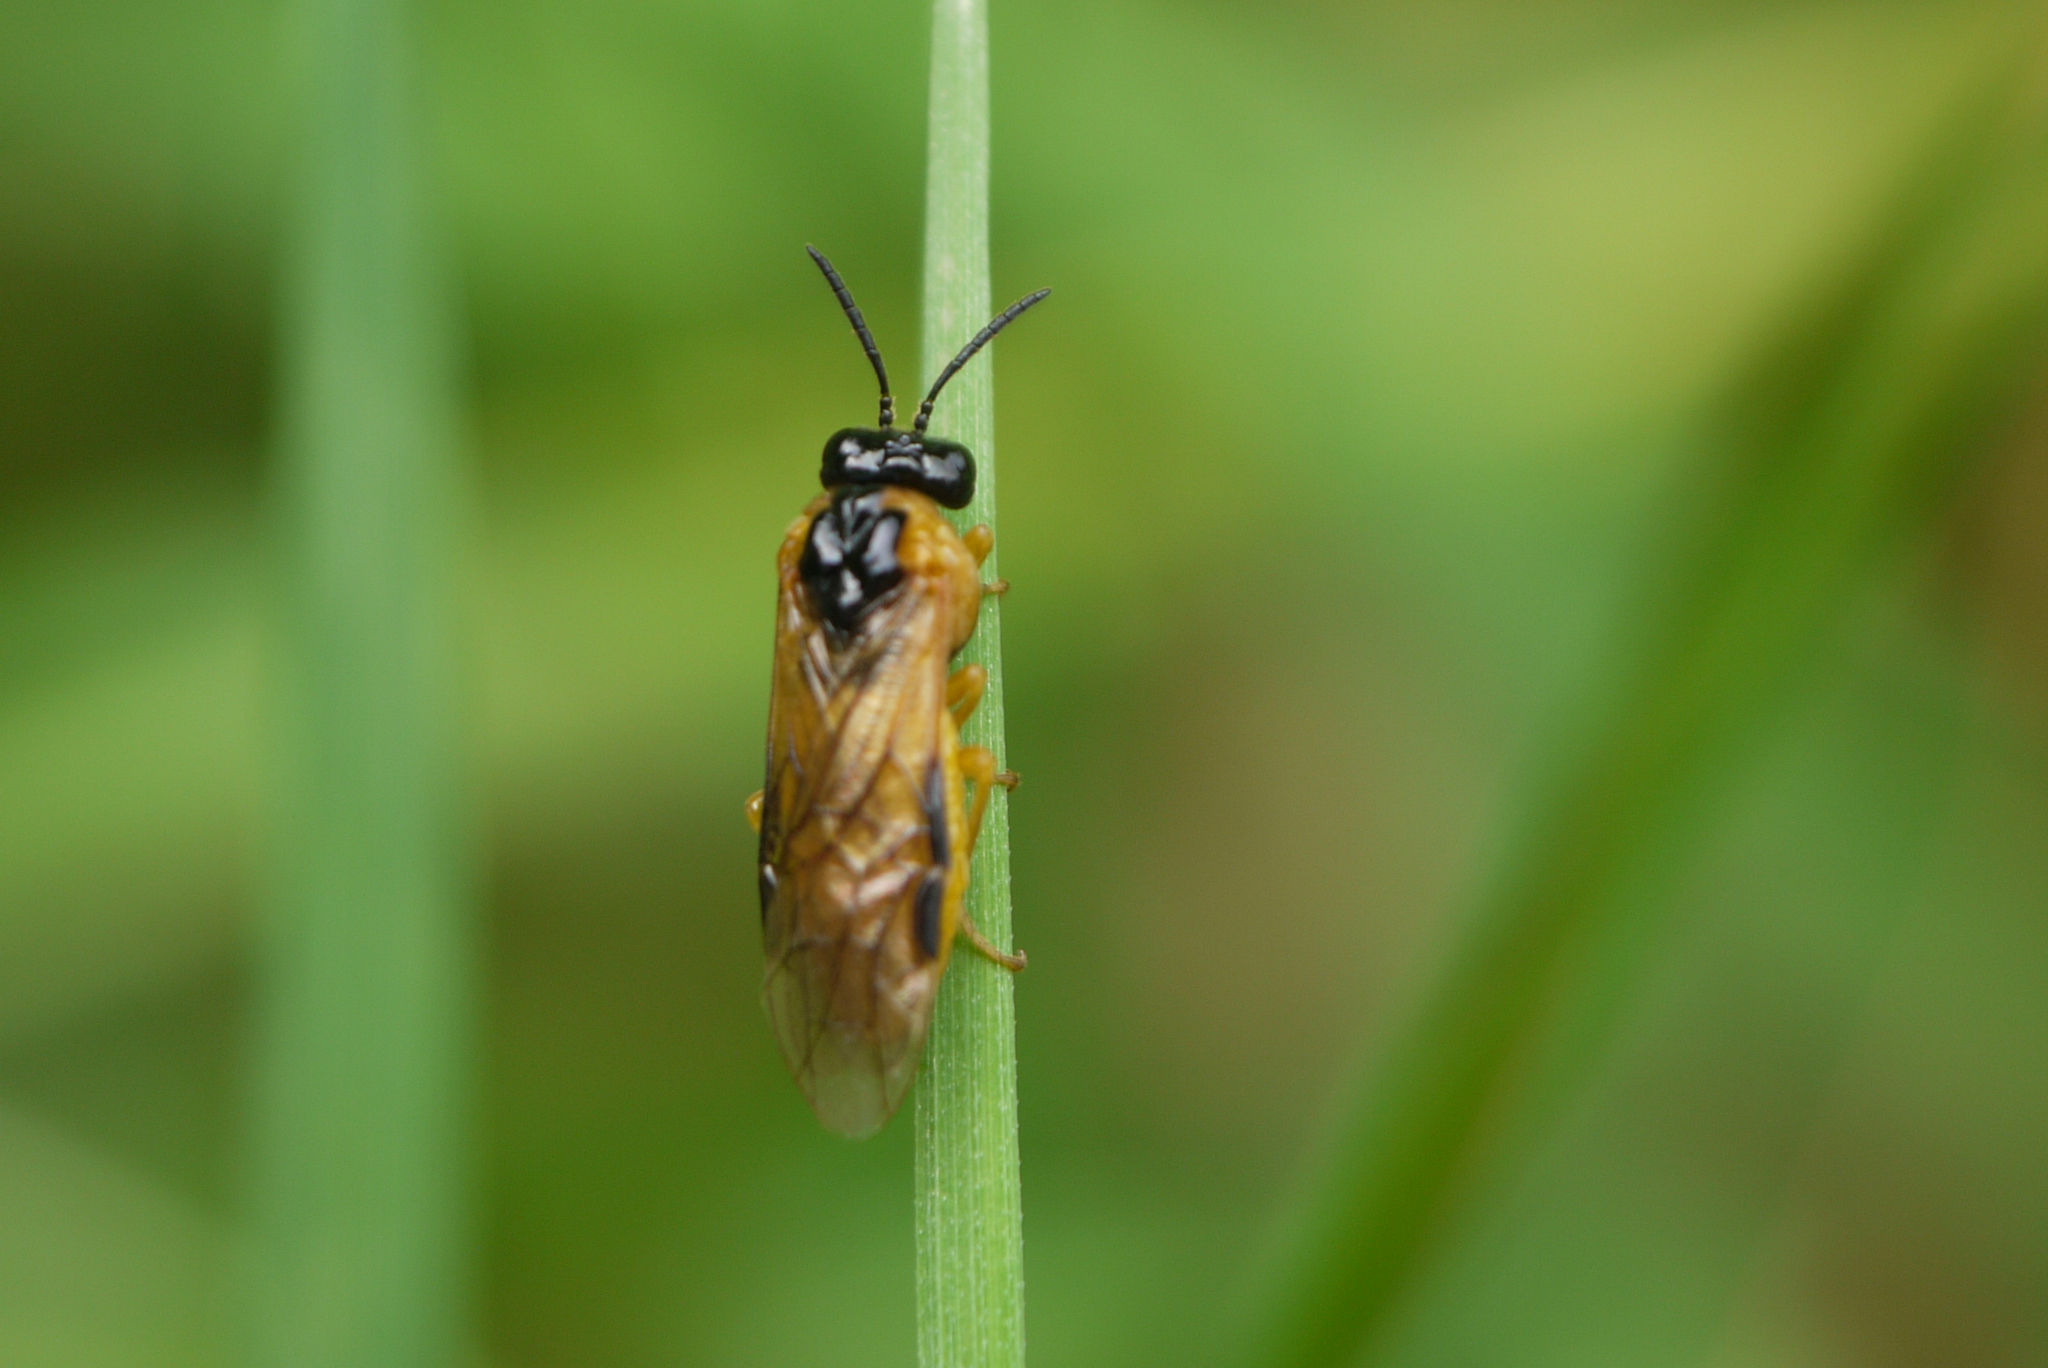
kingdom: Animalia
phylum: Arthropoda
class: Insecta
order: Hymenoptera
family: Tenthredinidae
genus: Selandria
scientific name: Selandria serva
